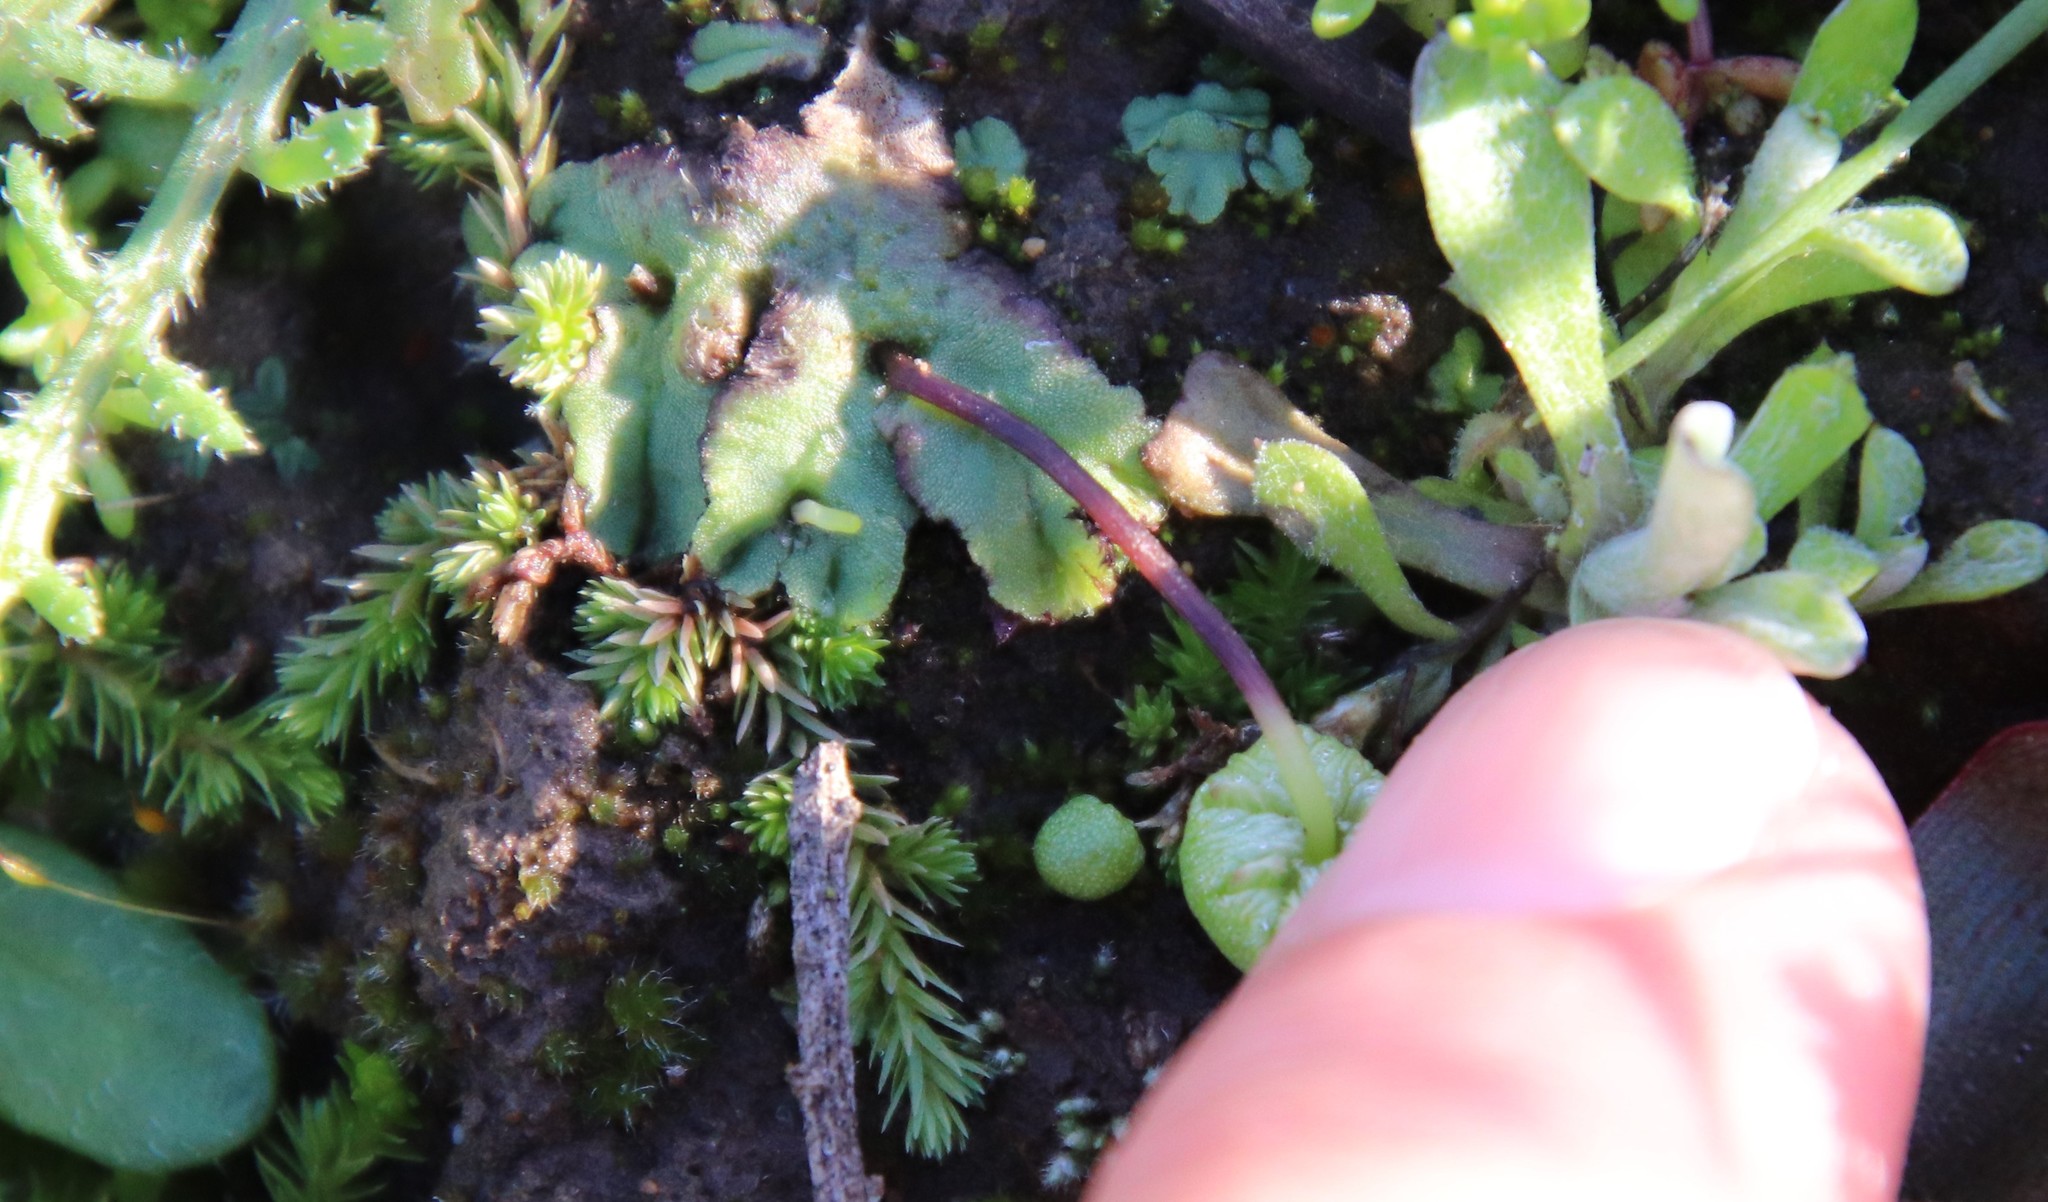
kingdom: Plantae
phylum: Marchantiophyta
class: Marchantiopsida
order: Marchantiales
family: Aytoniaceae
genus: Asterella
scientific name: Asterella palmeri
